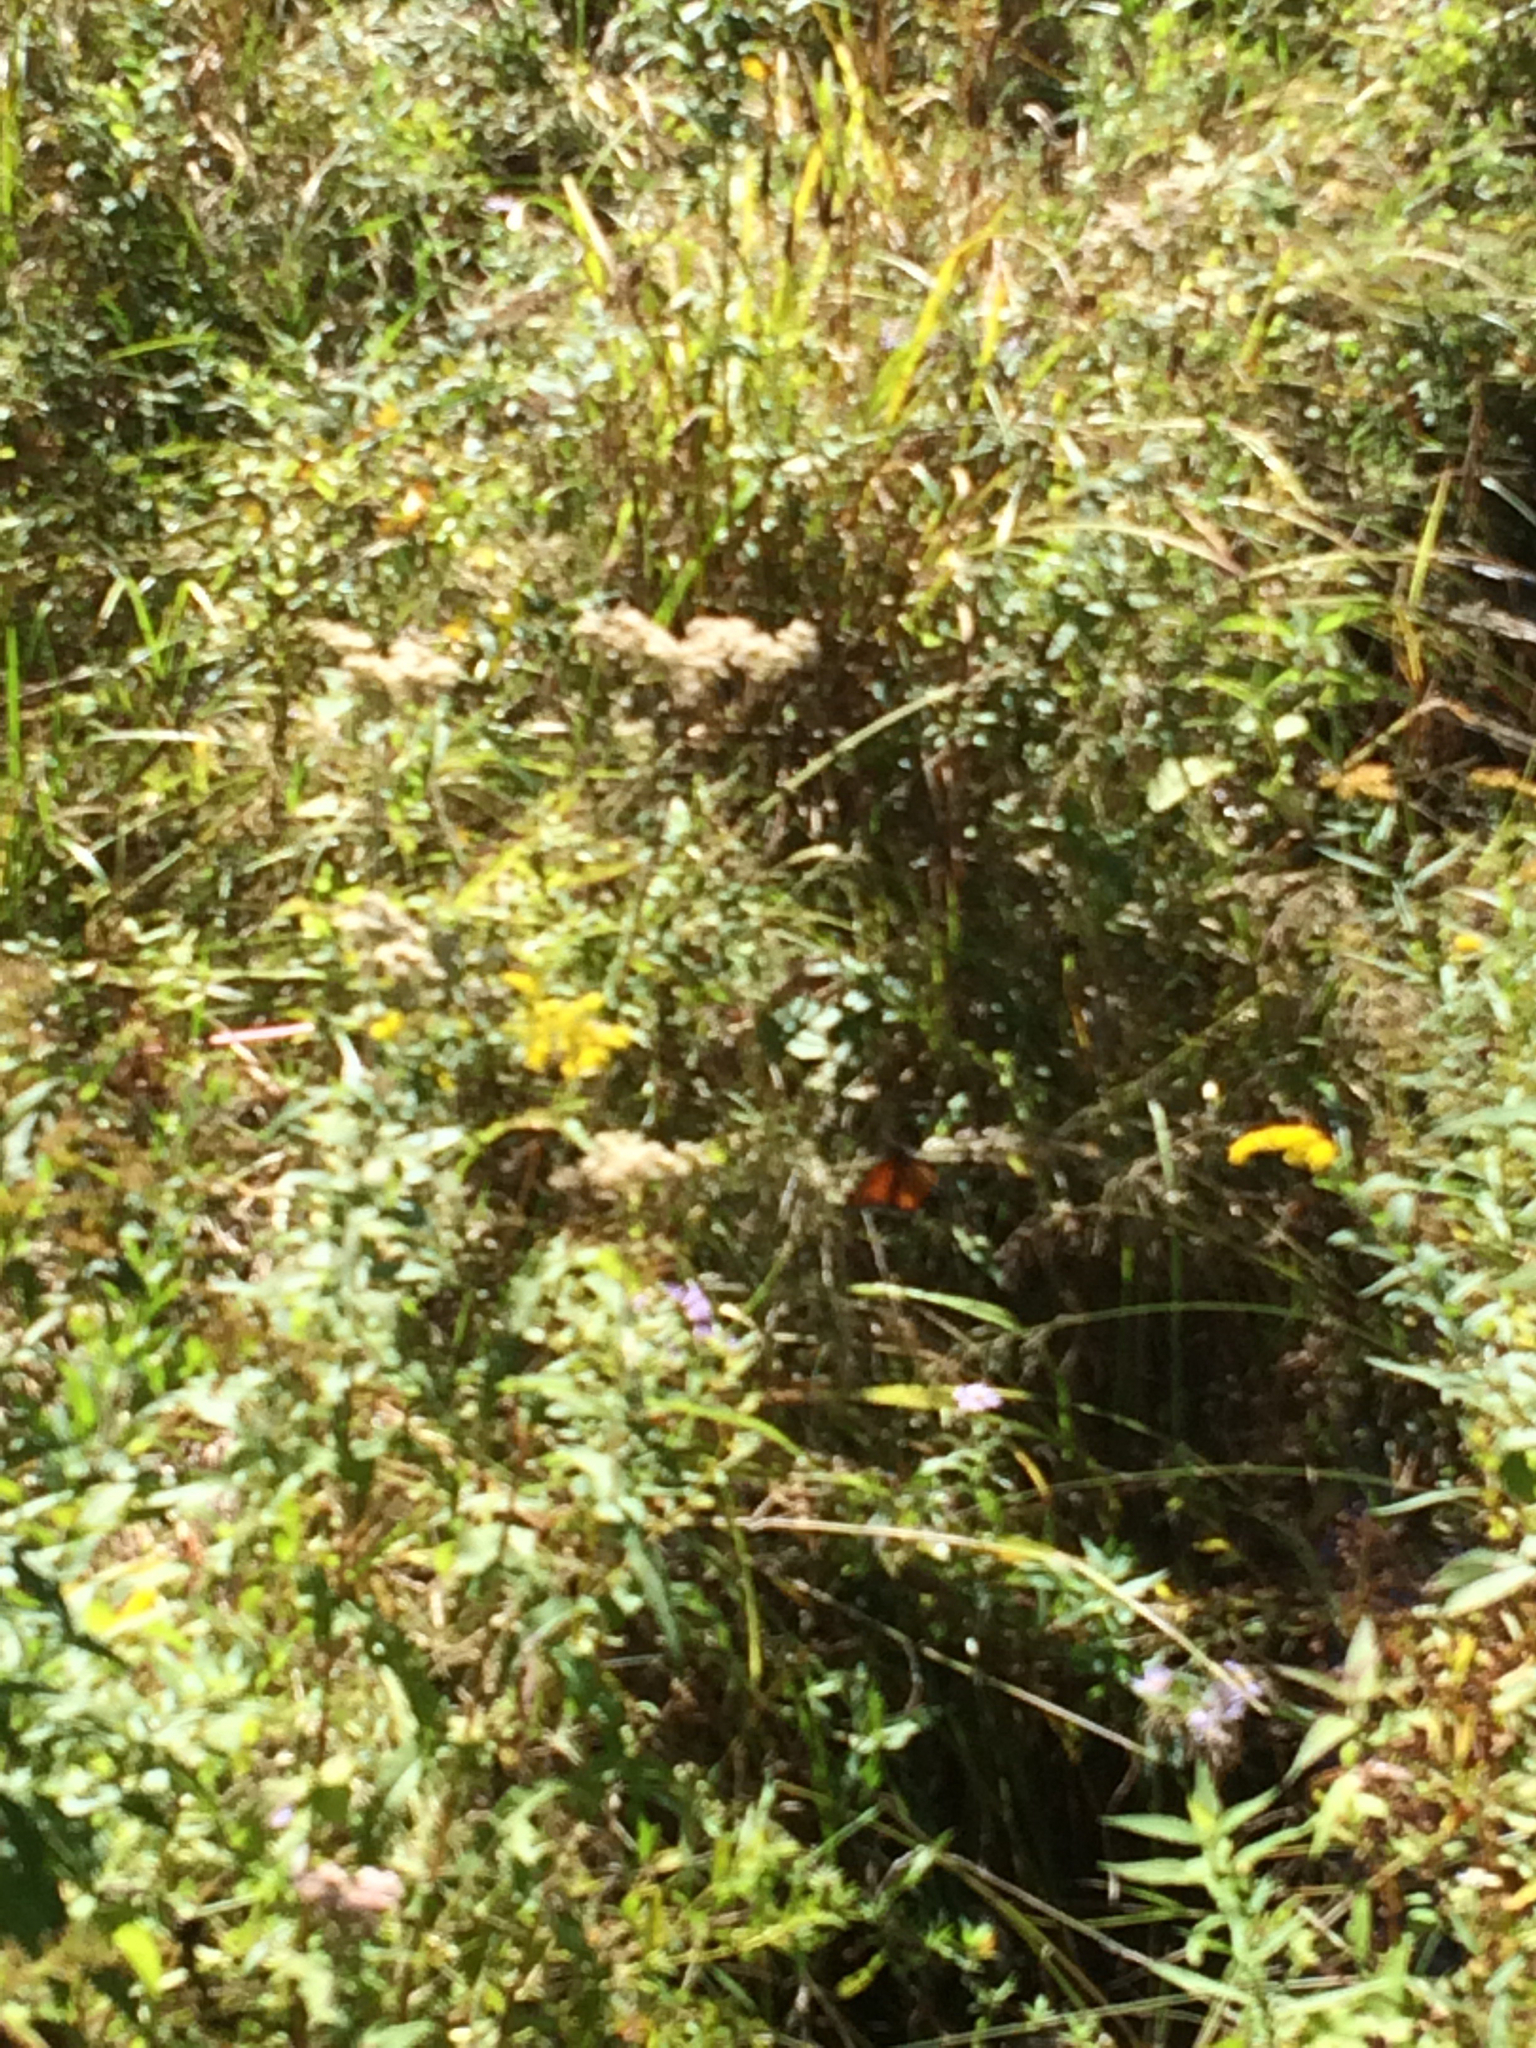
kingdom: Animalia
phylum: Arthropoda
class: Insecta
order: Lepidoptera
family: Nymphalidae
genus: Danaus
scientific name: Danaus plexippus
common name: Monarch
